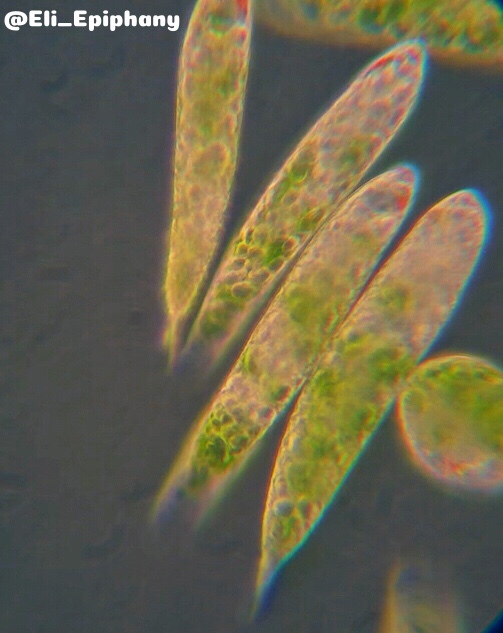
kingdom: Protozoa
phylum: Euglenozoa
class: Euglenoidea
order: Euglenida
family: Euglenaceae
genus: Euglena
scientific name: Euglena granulata
